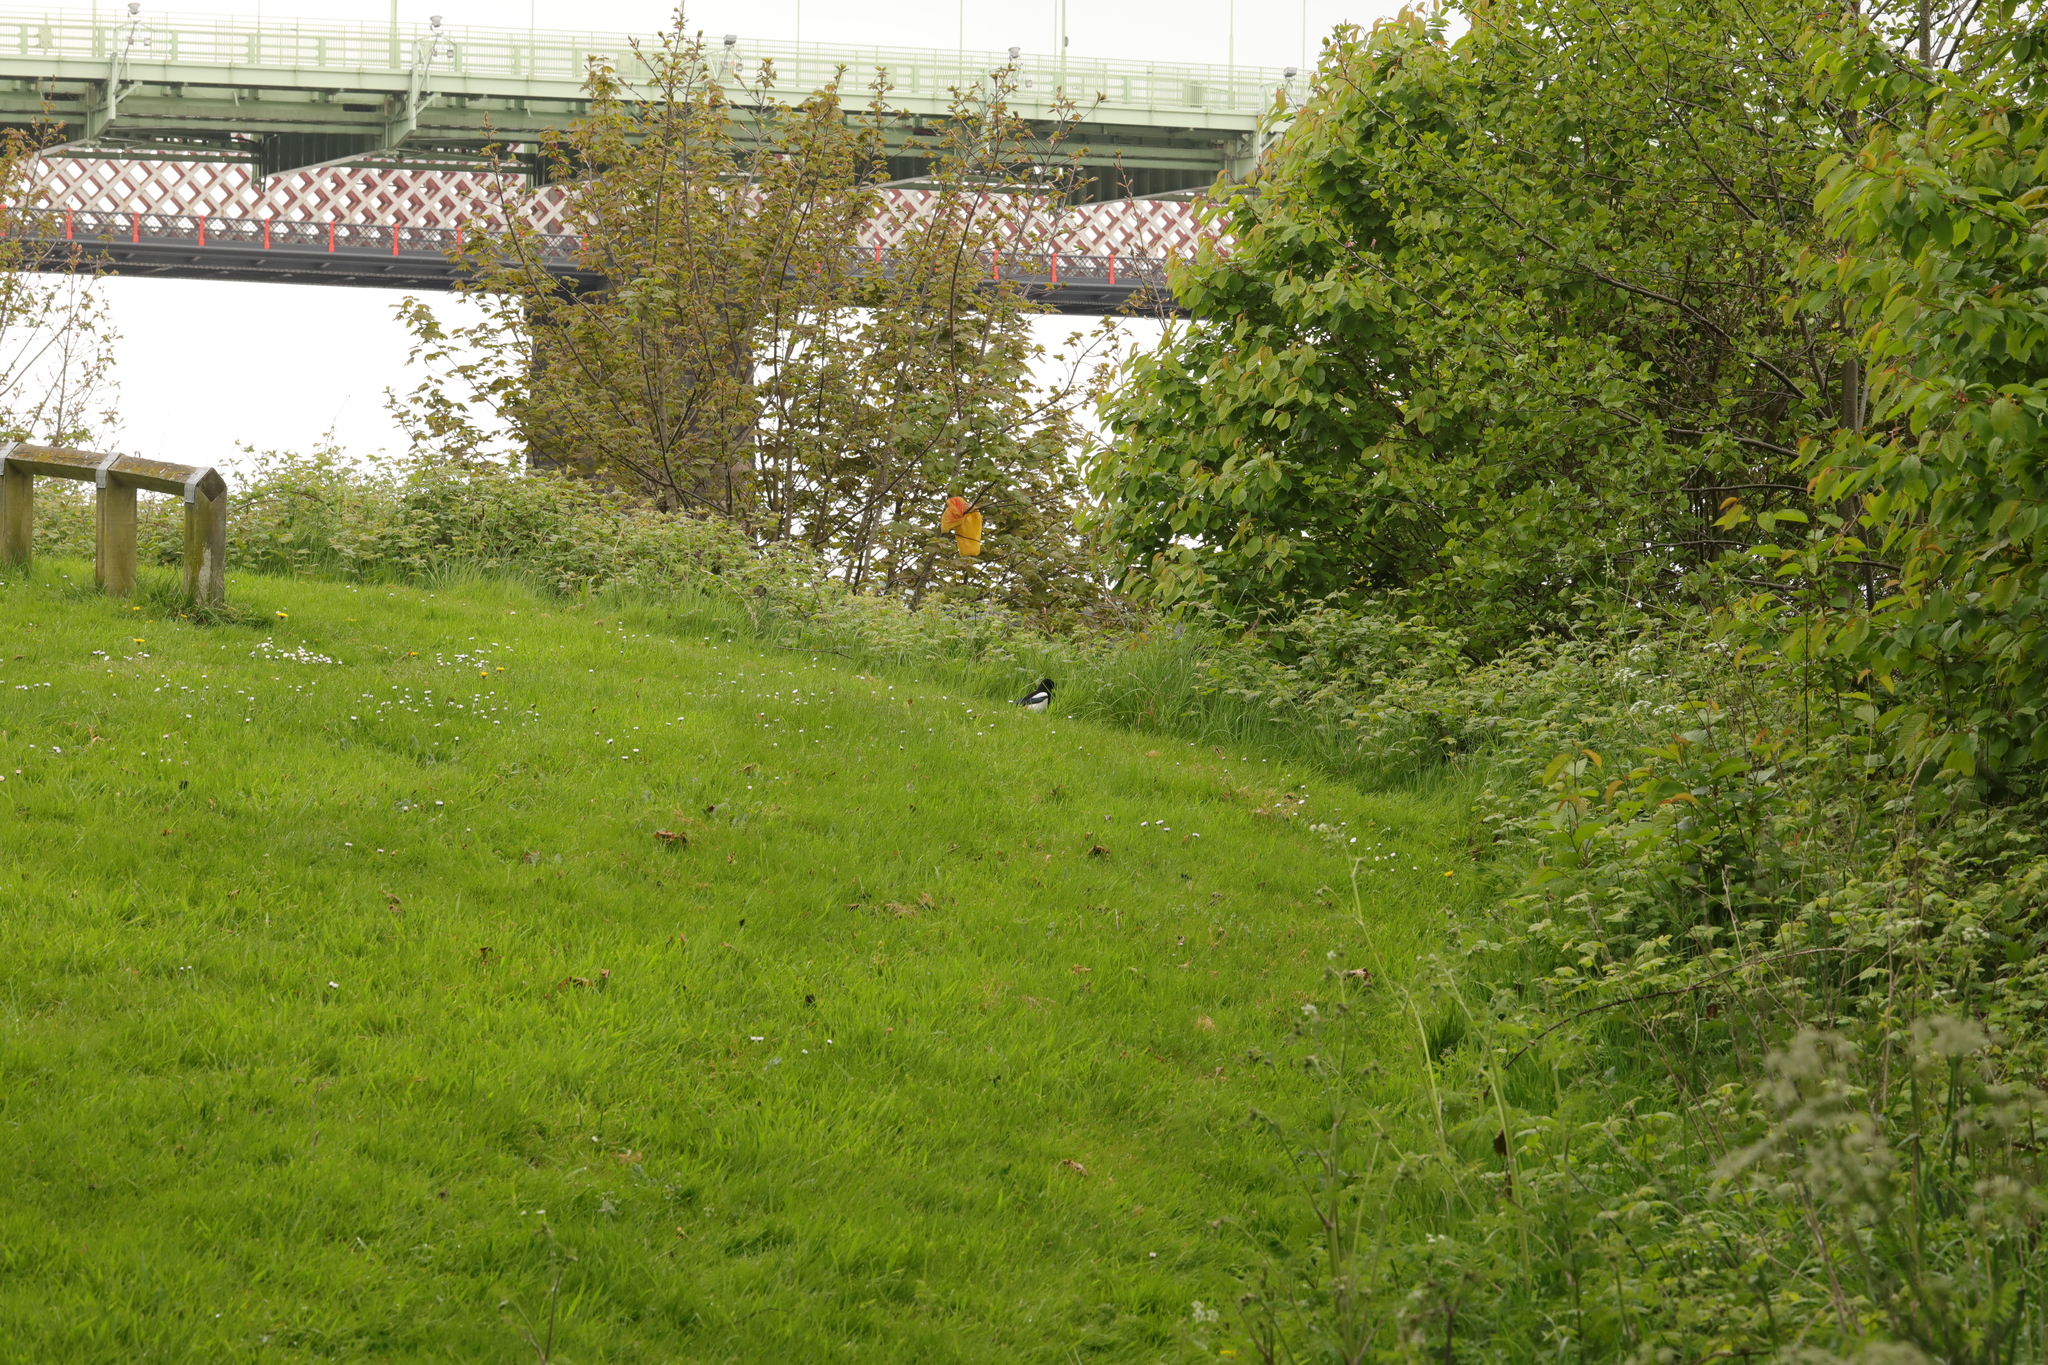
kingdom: Animalia
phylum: Chordata
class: Aves
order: Passeriformes
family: Corvidae
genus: Pica
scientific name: Pica pica
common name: Eurasian magpie
